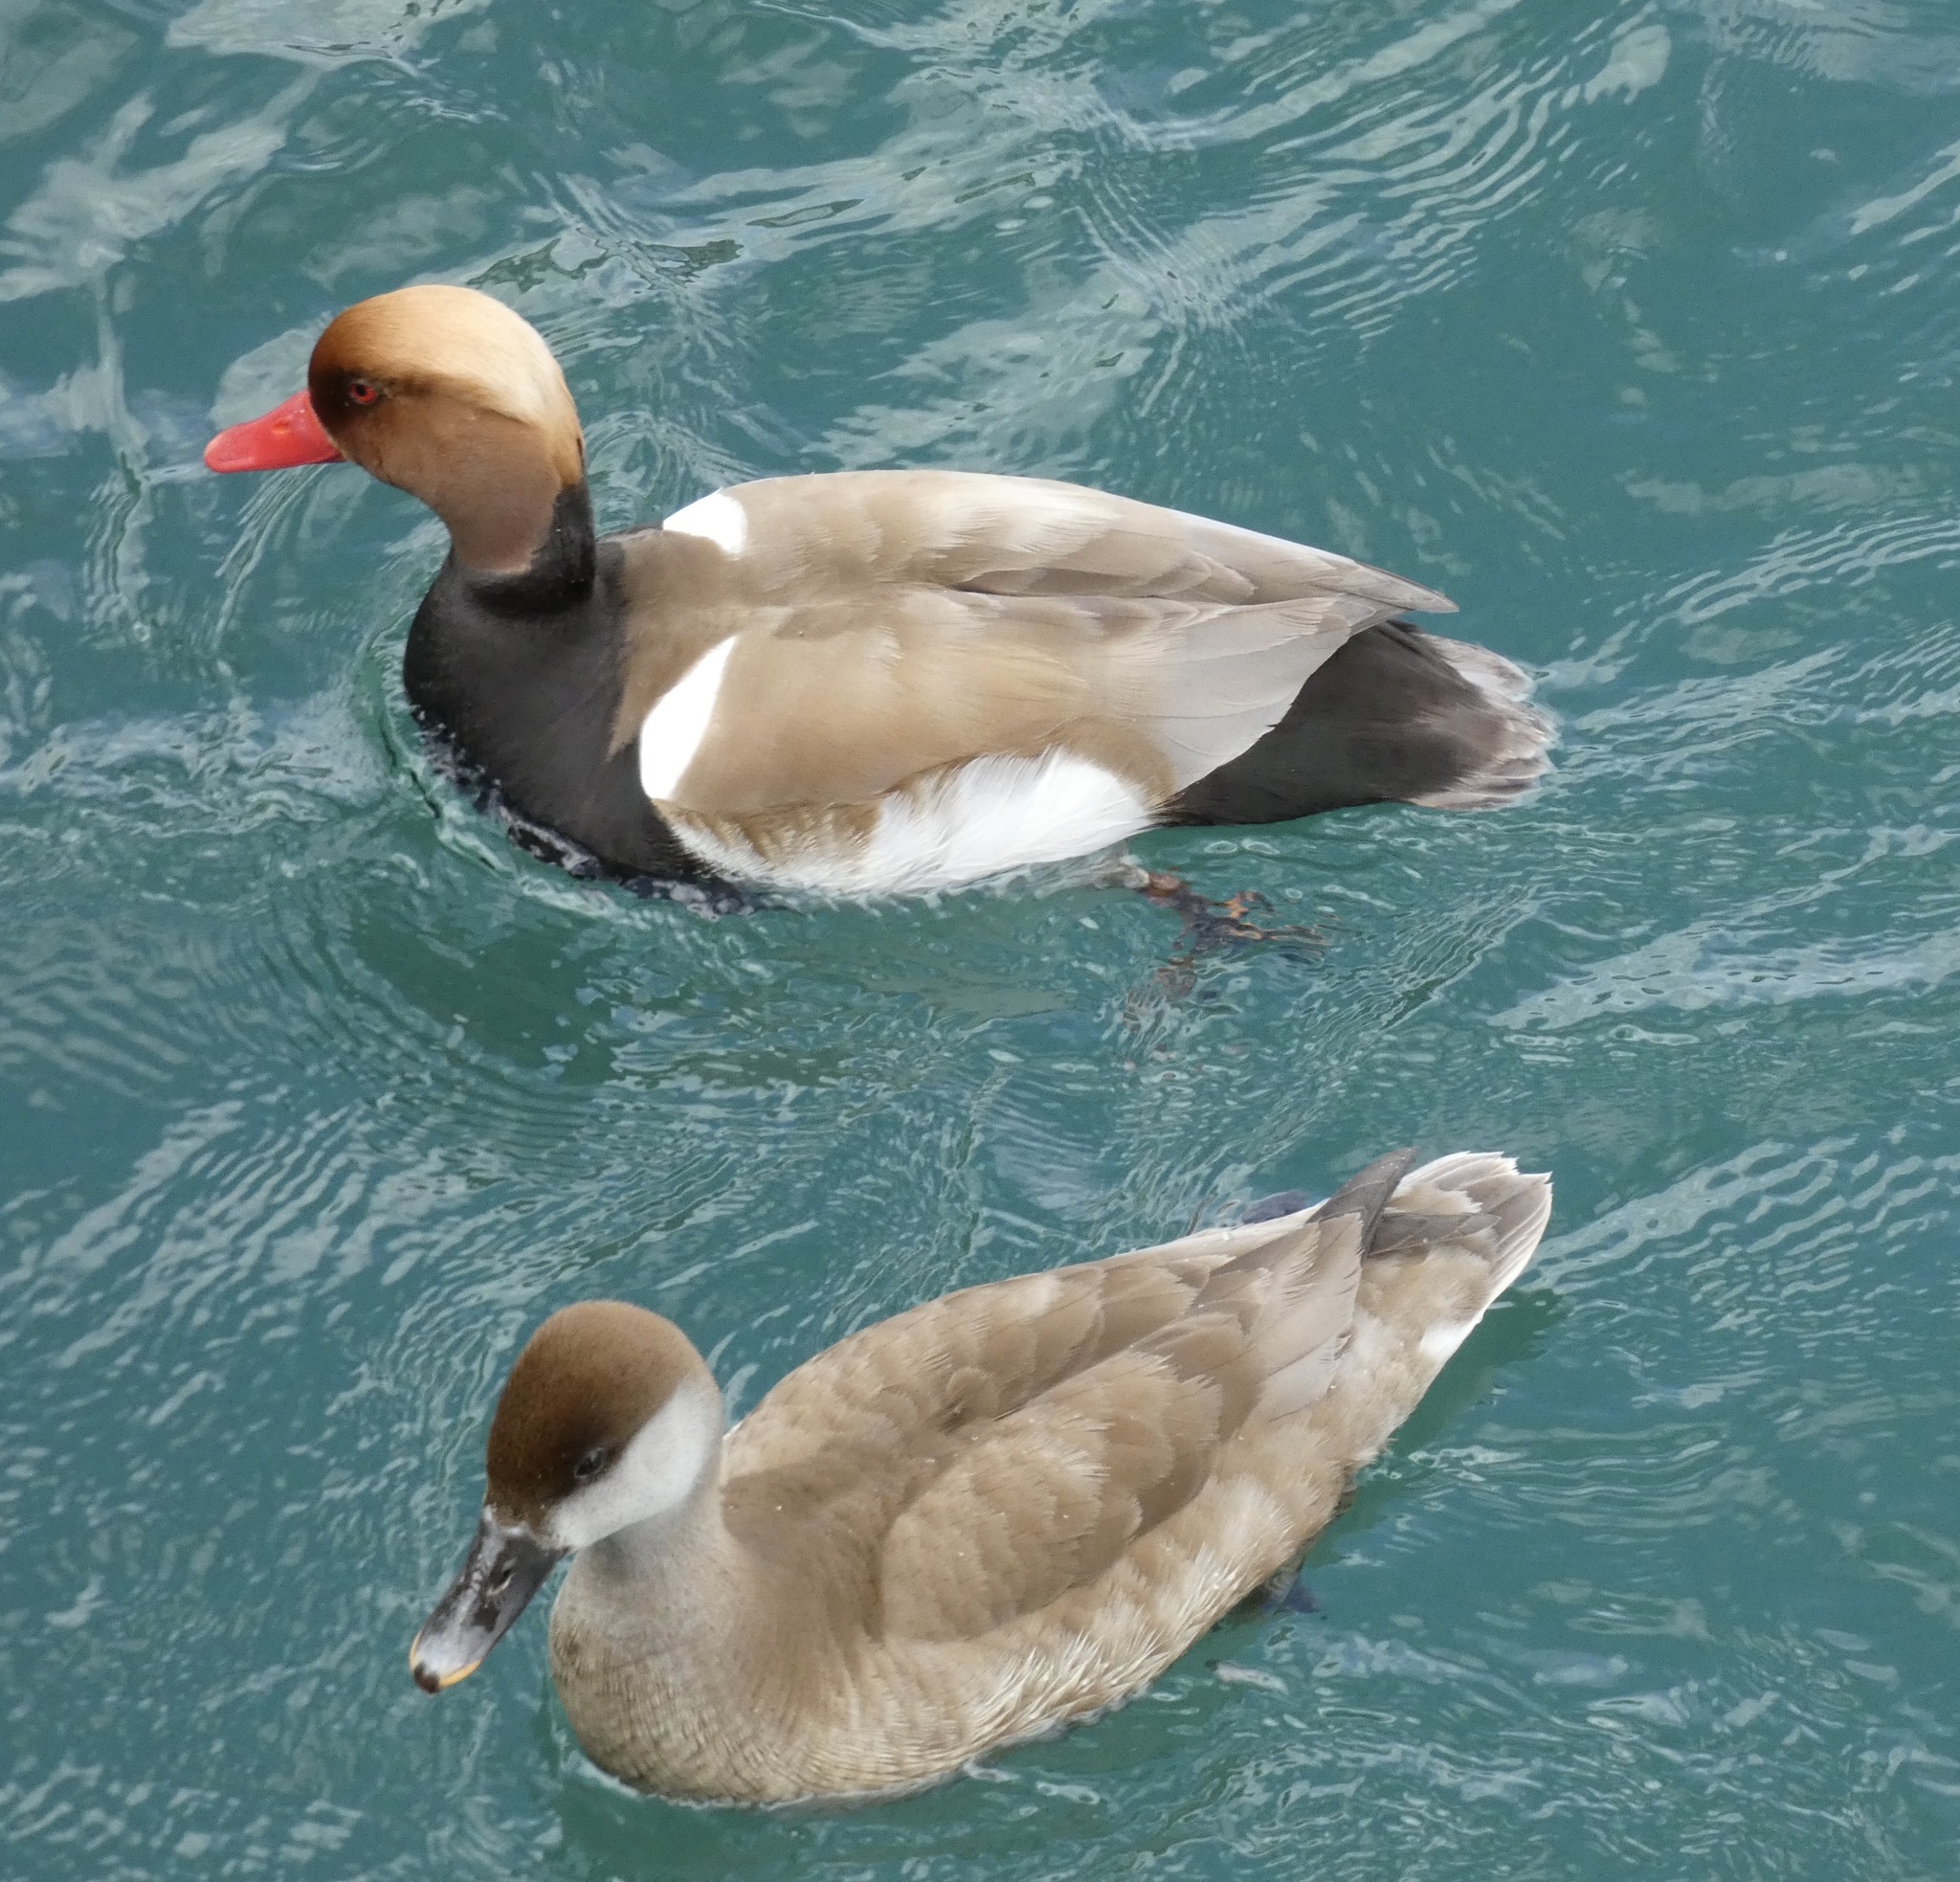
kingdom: Animalia
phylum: Chordata
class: Aves
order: Anseriformes
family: Anatidae
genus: Netta
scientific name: Netta rufina
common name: Red-crested pochard
